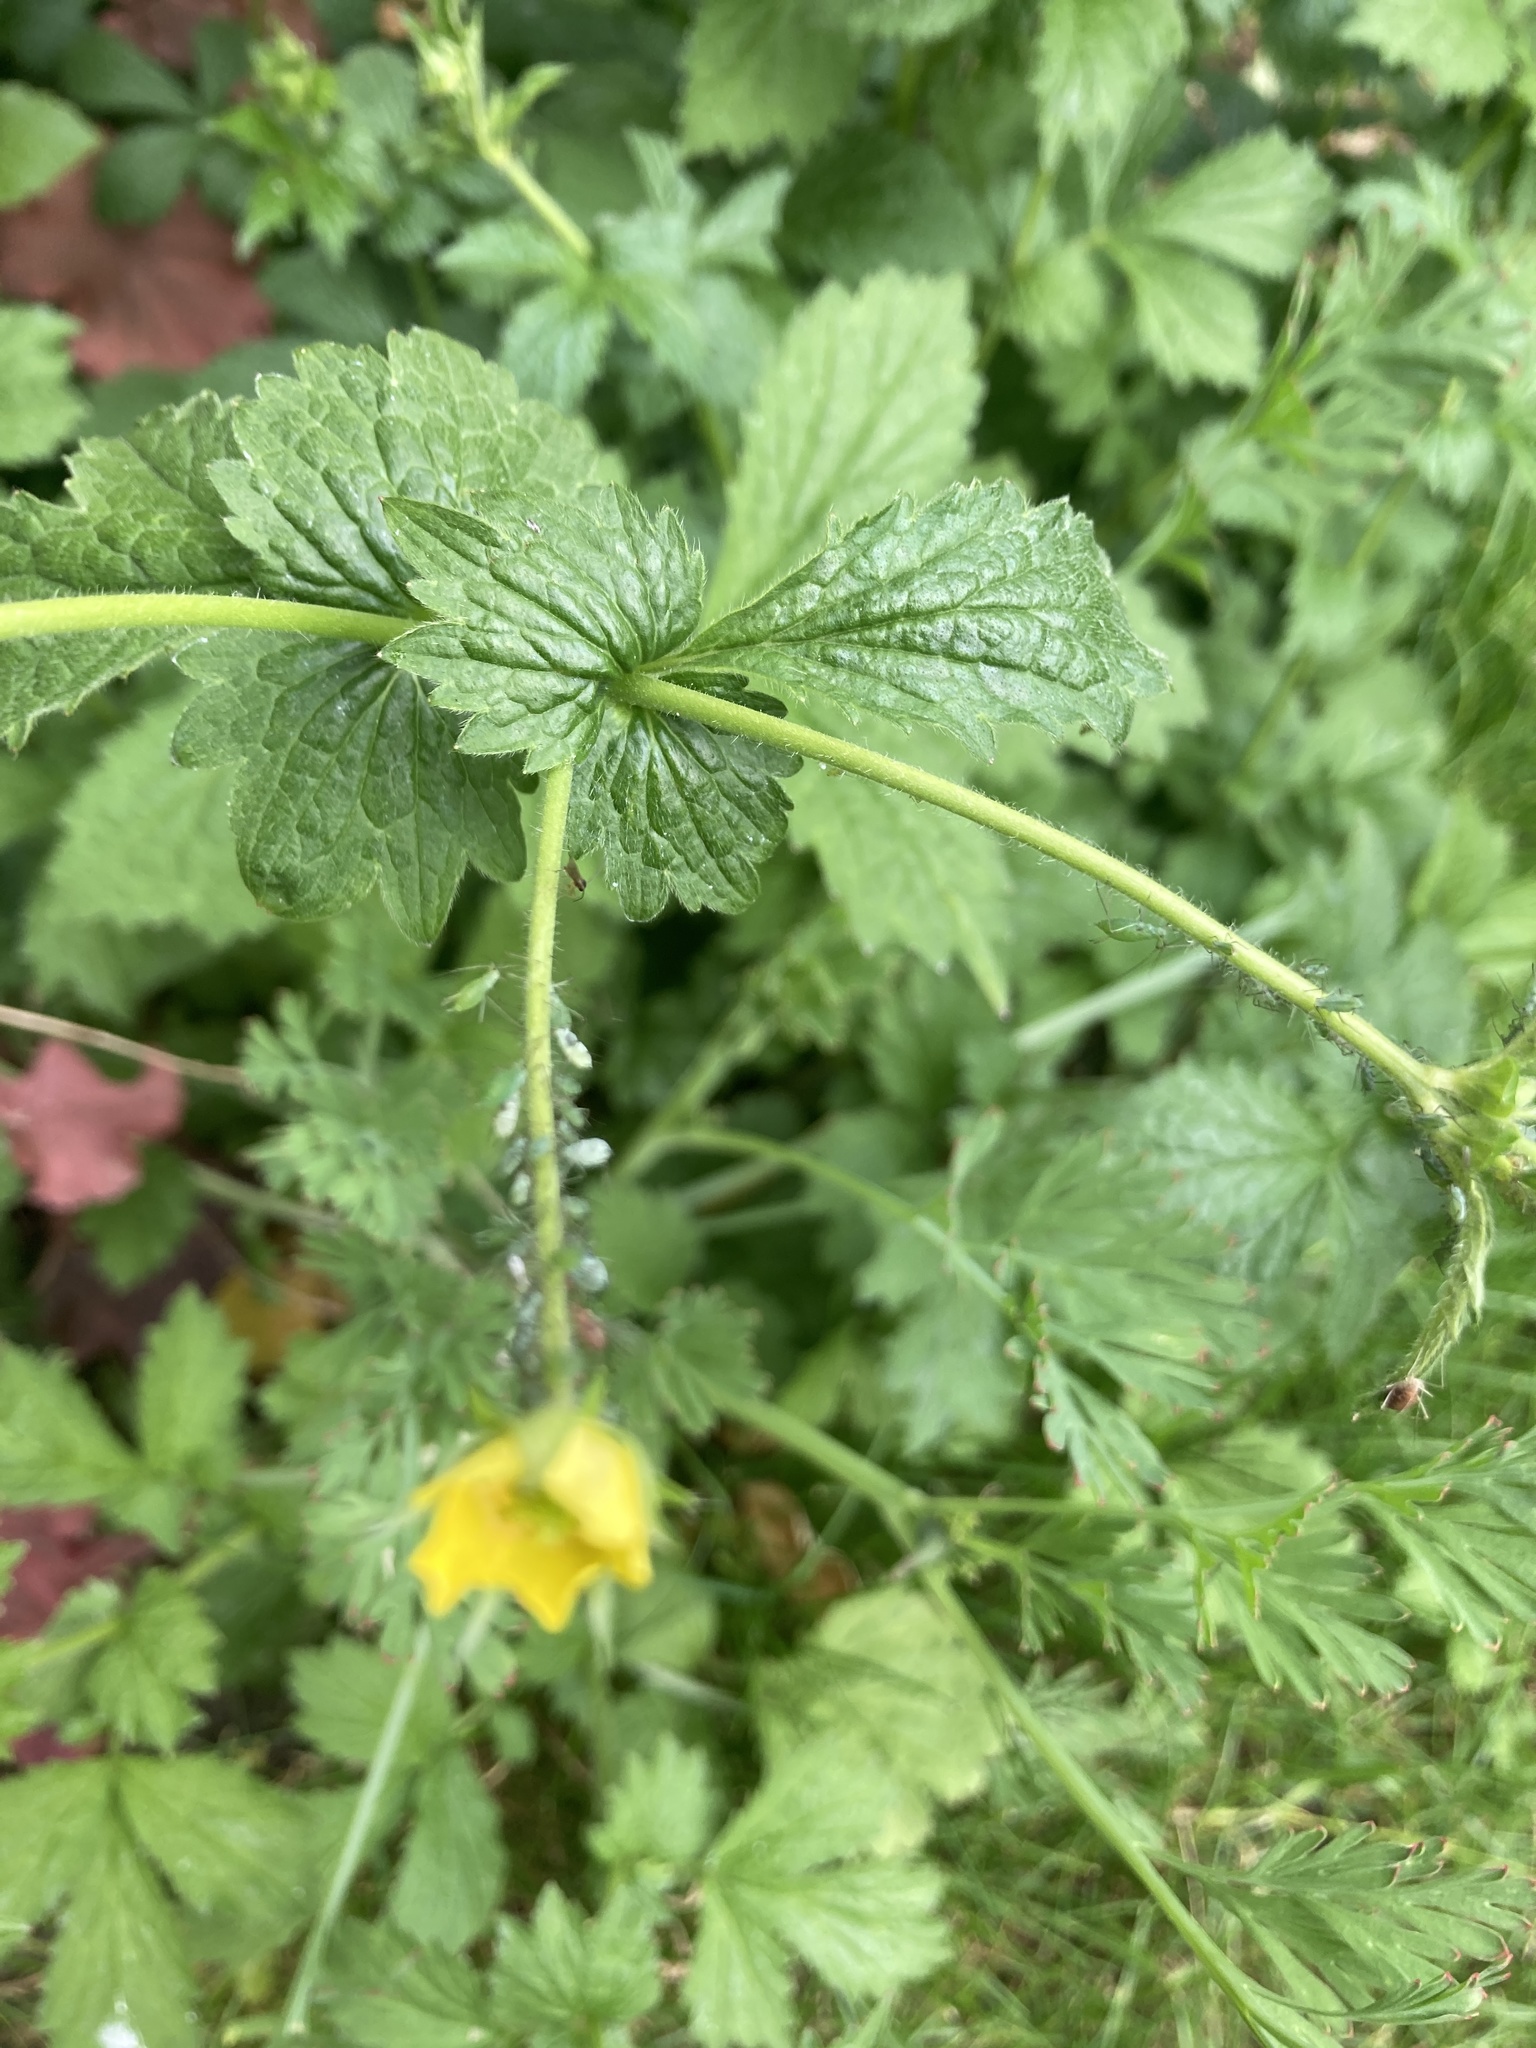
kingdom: Plantae
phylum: Tracheophyta
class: Magnoliopsida
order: Rosales
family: Rosaceae
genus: Geum
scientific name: Geum urbanum
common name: Wood avens
